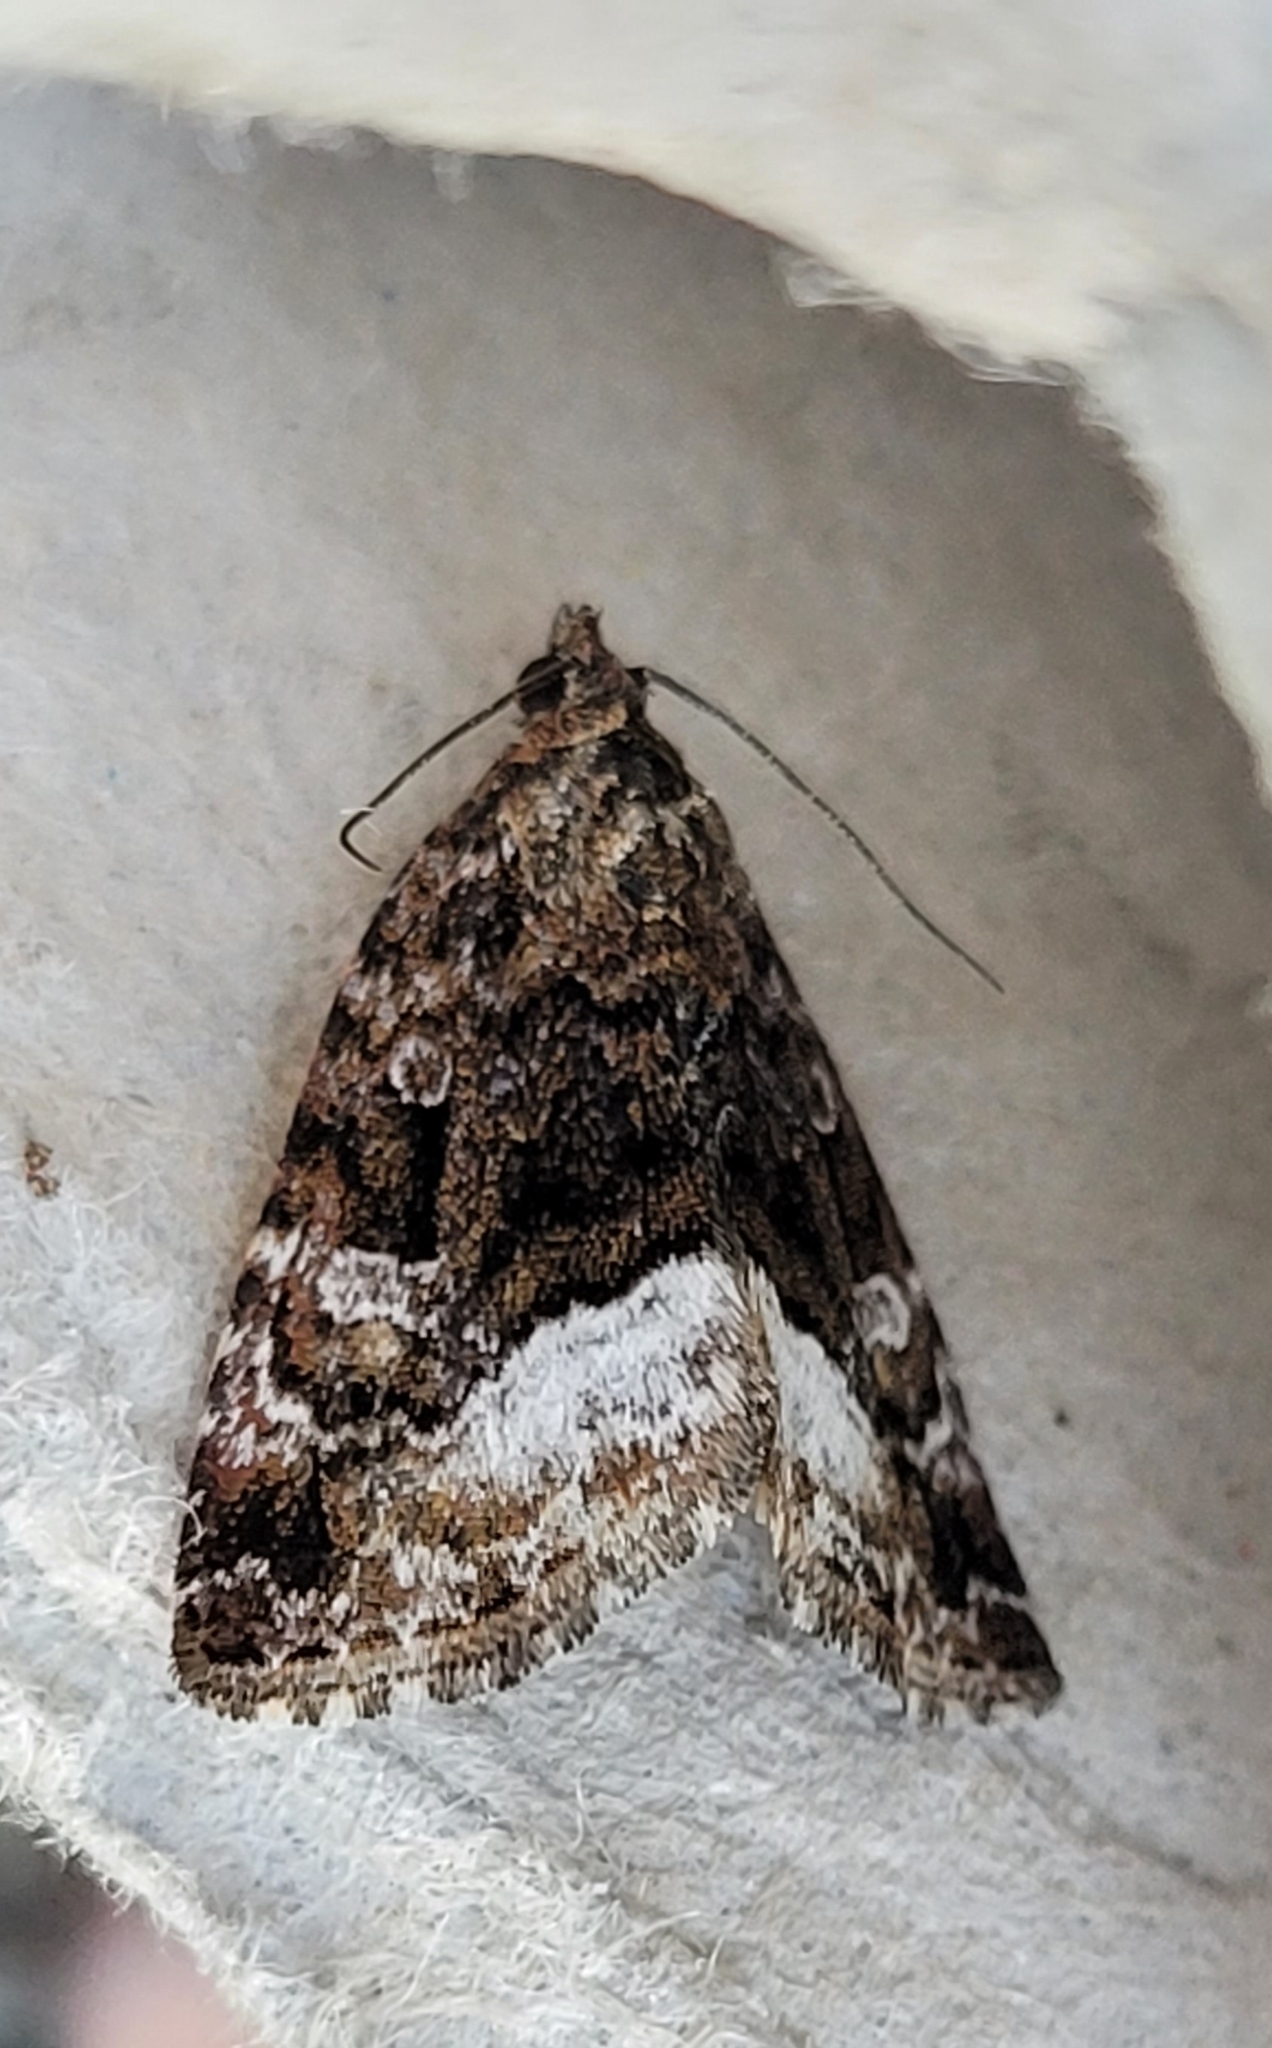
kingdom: Animalia
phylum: Arthropoda
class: Insecta
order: Lepidoptera
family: Noctuidae
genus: Deltote
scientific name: Deltote pygarga
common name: Marbled white spot
